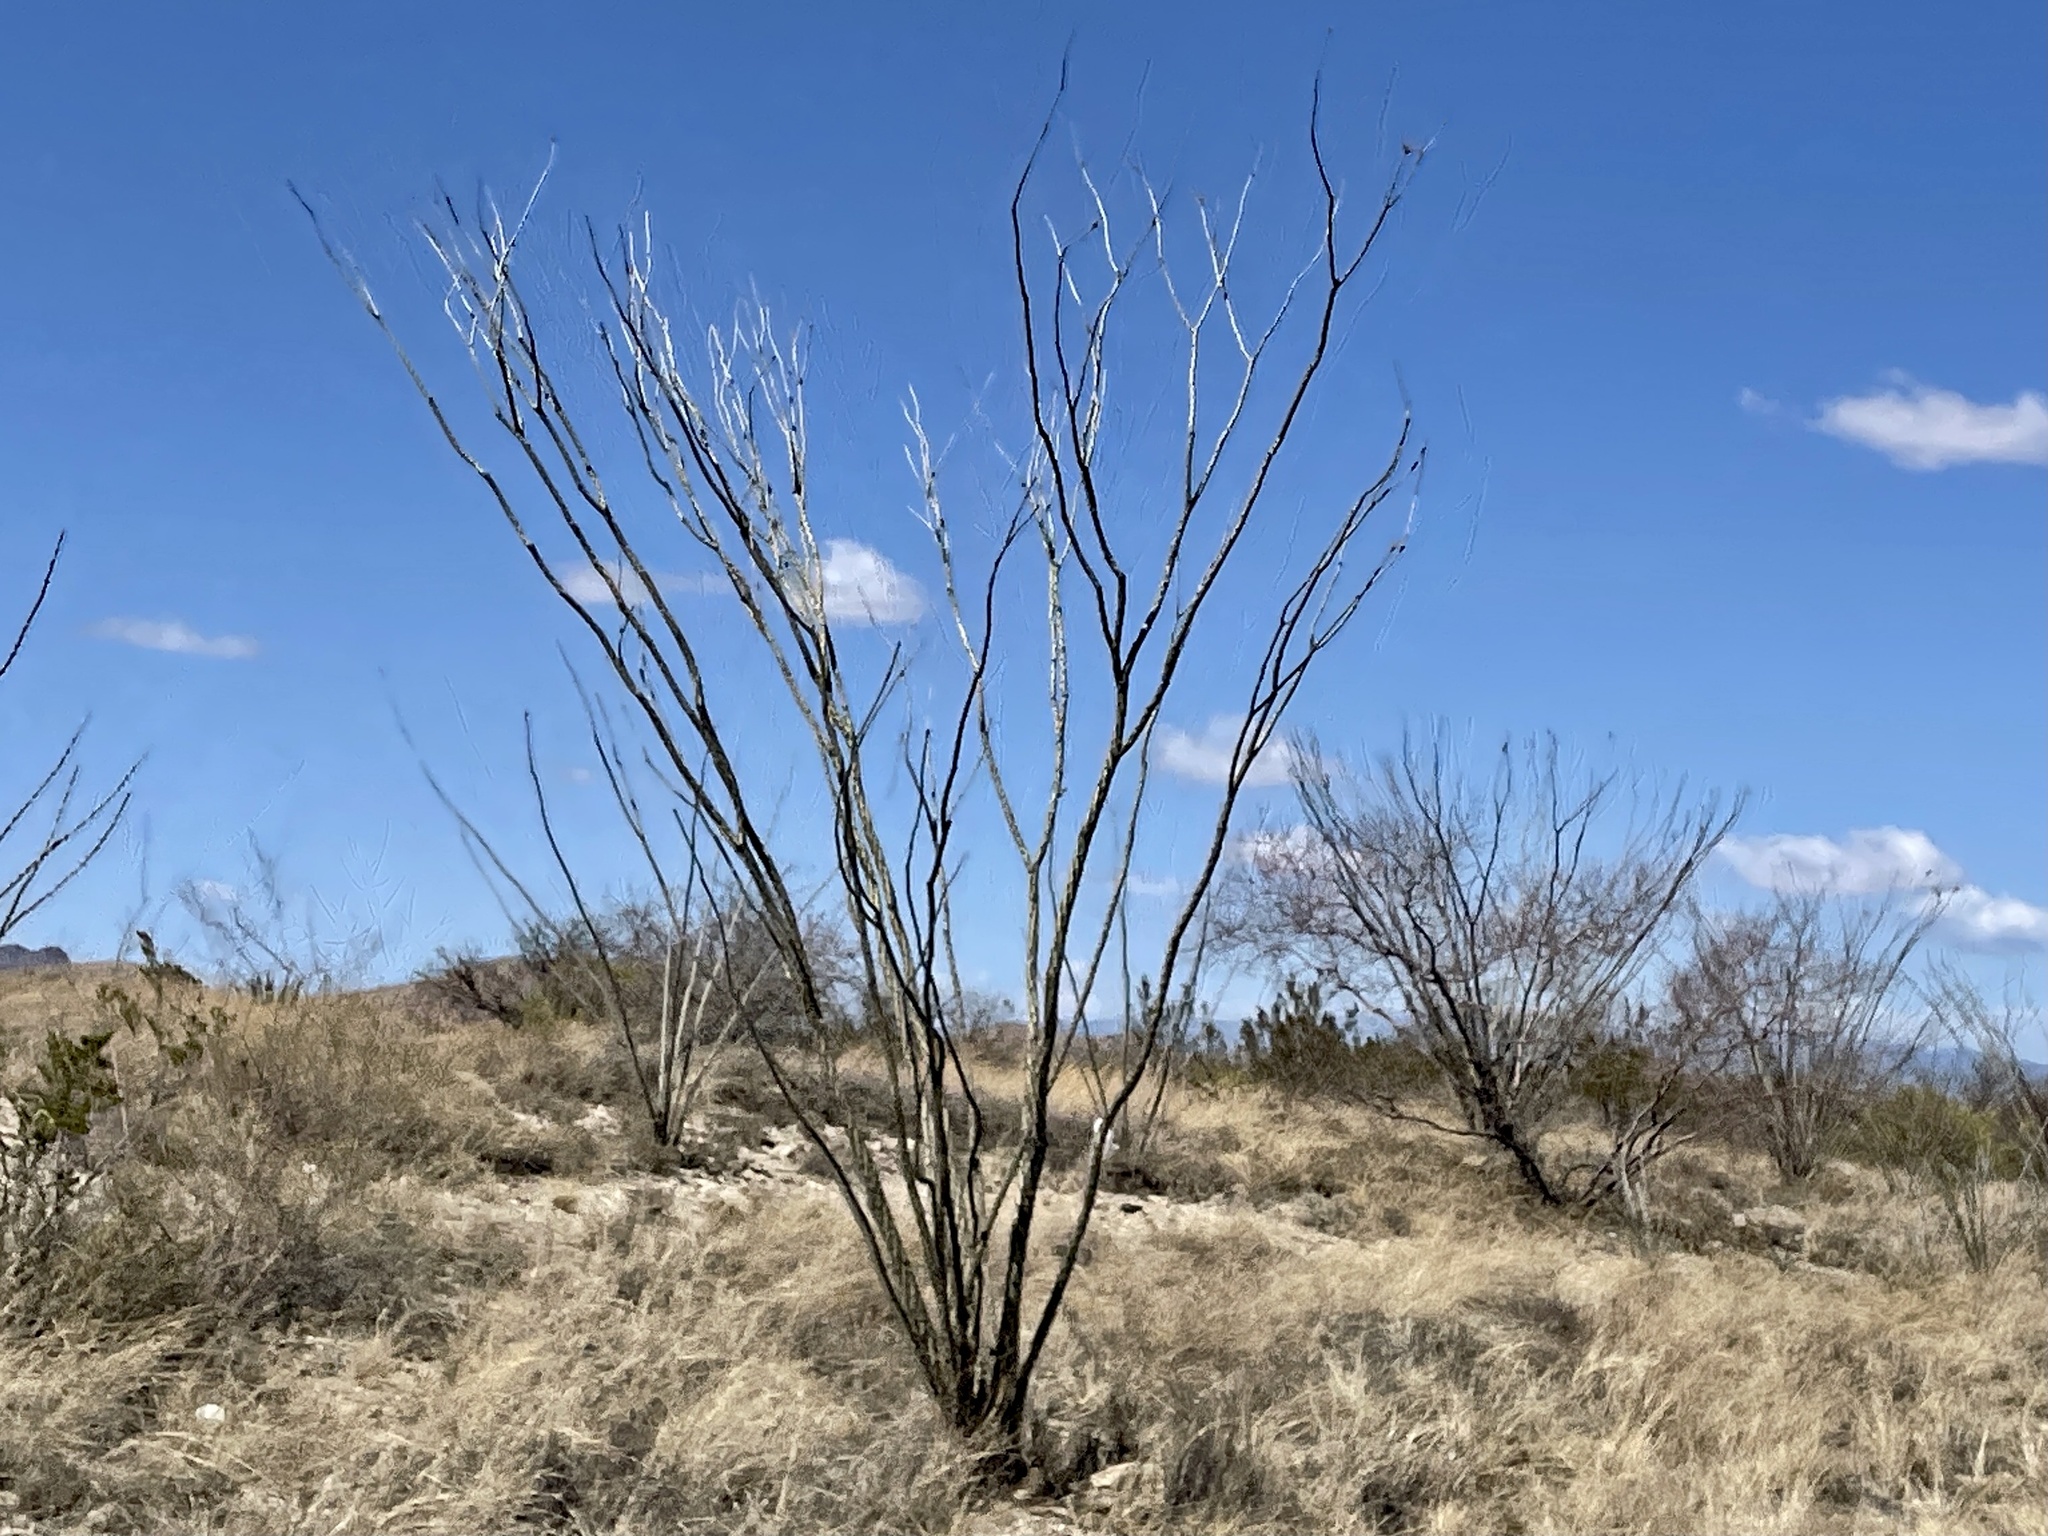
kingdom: Plantae
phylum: Tracheophyta
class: Magnoliopsida
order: Ericales
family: Fouquieriaceae
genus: Fouquieria
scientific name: Fouquieria splendens
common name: Vine-cactus
